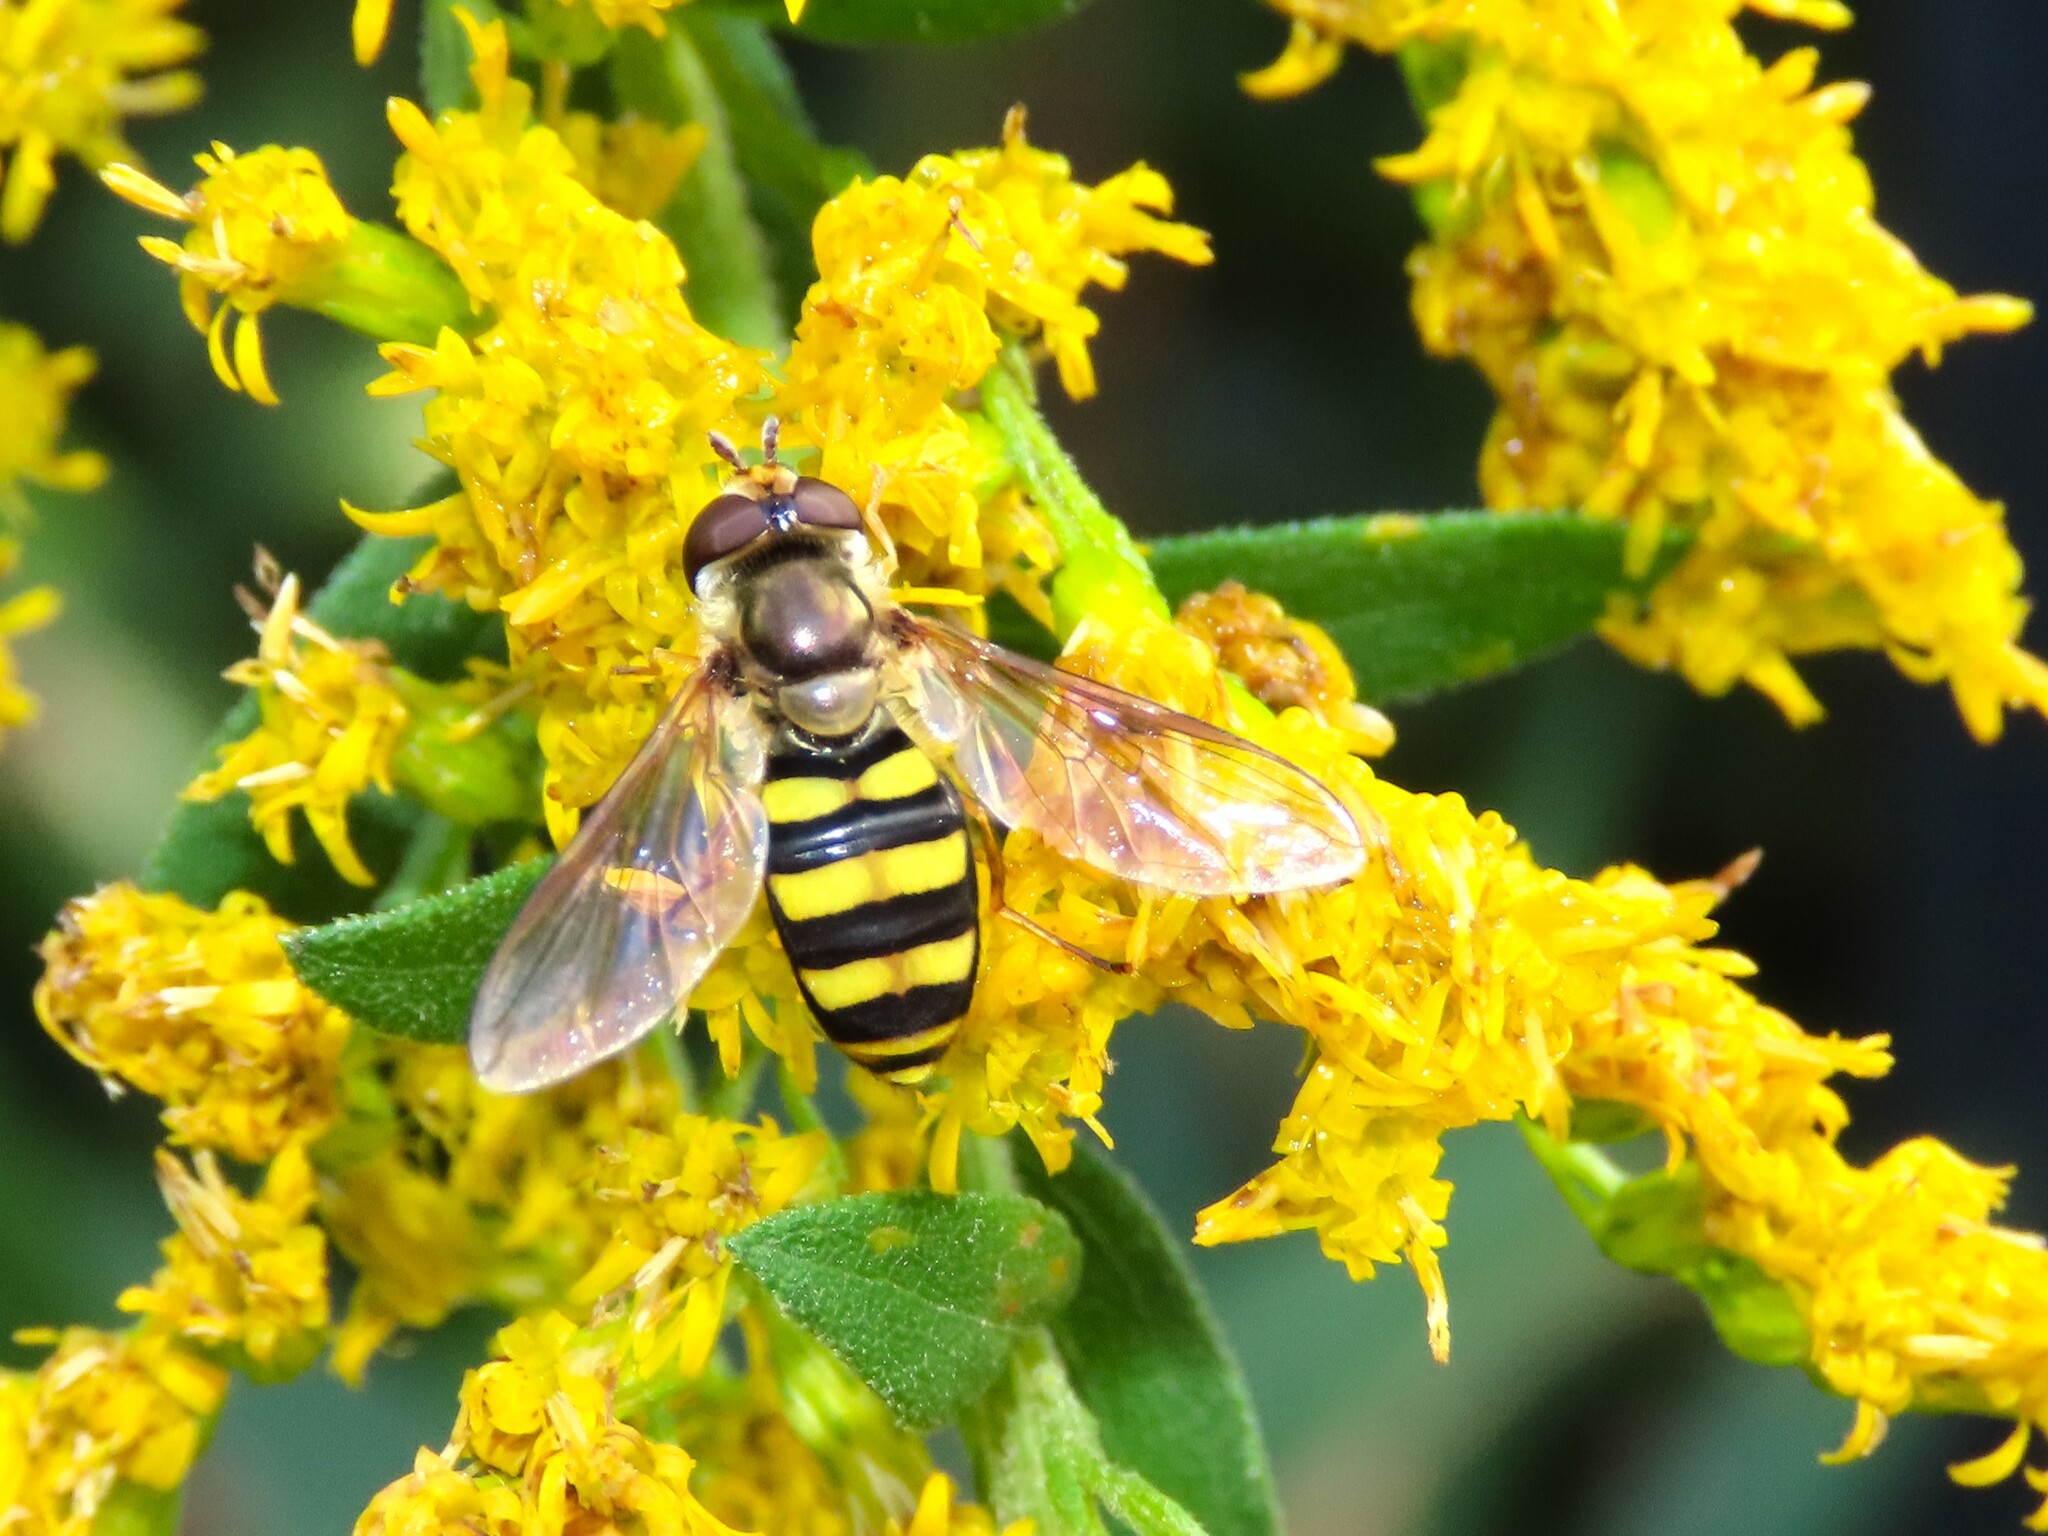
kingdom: Animalia
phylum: Arthropoda
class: Insecta
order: Diptera
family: Syrphidae
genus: Eupeodes
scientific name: Eupeodes
